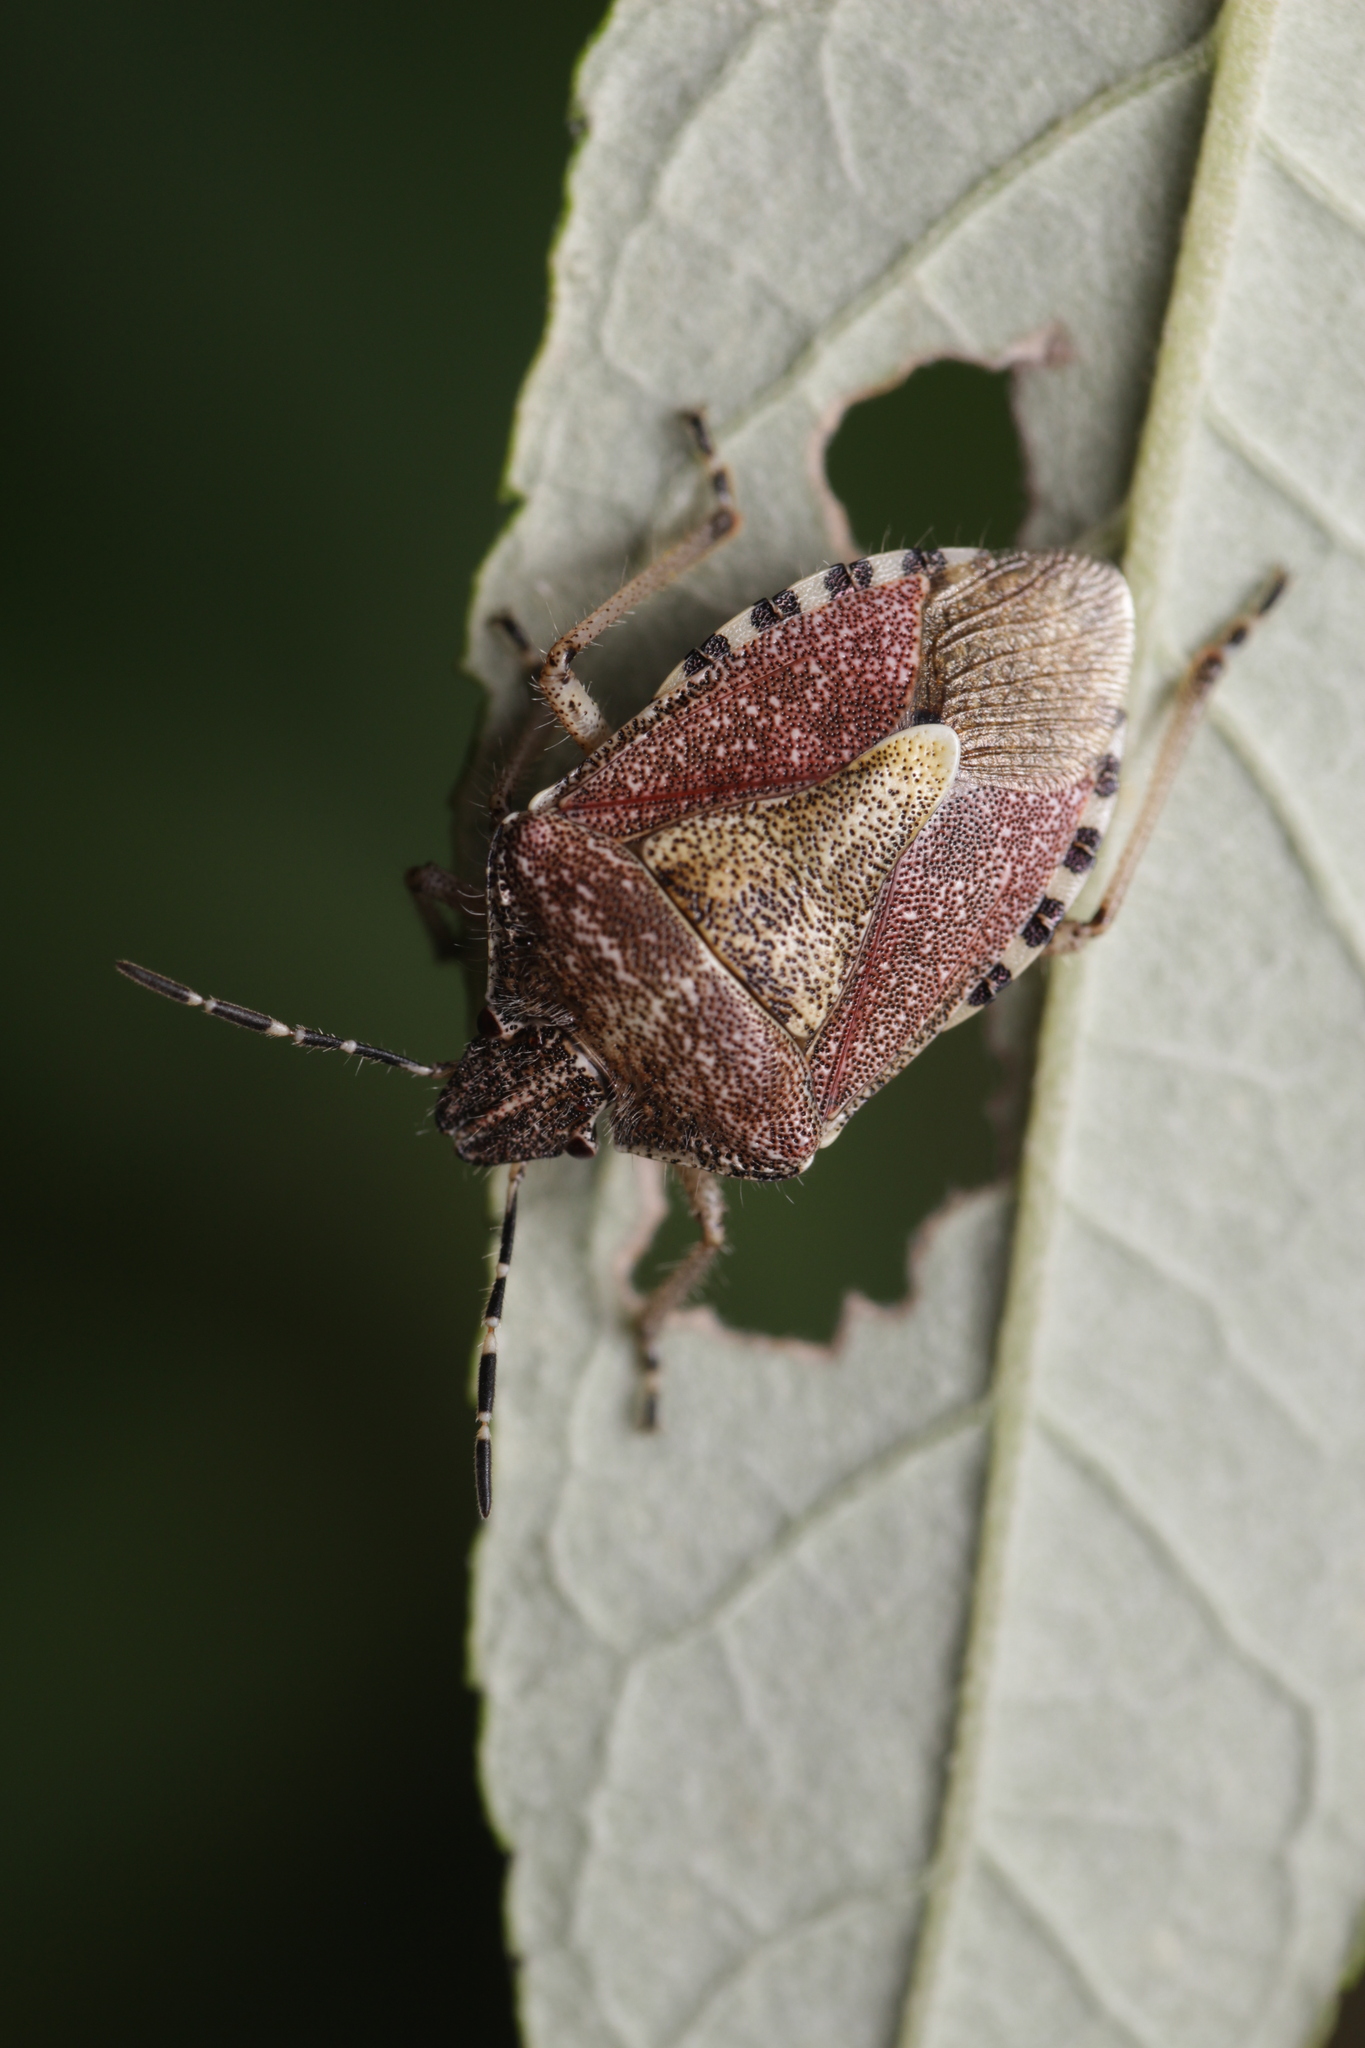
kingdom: Animalia
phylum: Arthropoda
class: Insecta
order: Hemiptera
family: Pentatomidae
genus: Dolycoris
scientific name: Dolycoris baccarum
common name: Sloe bug
